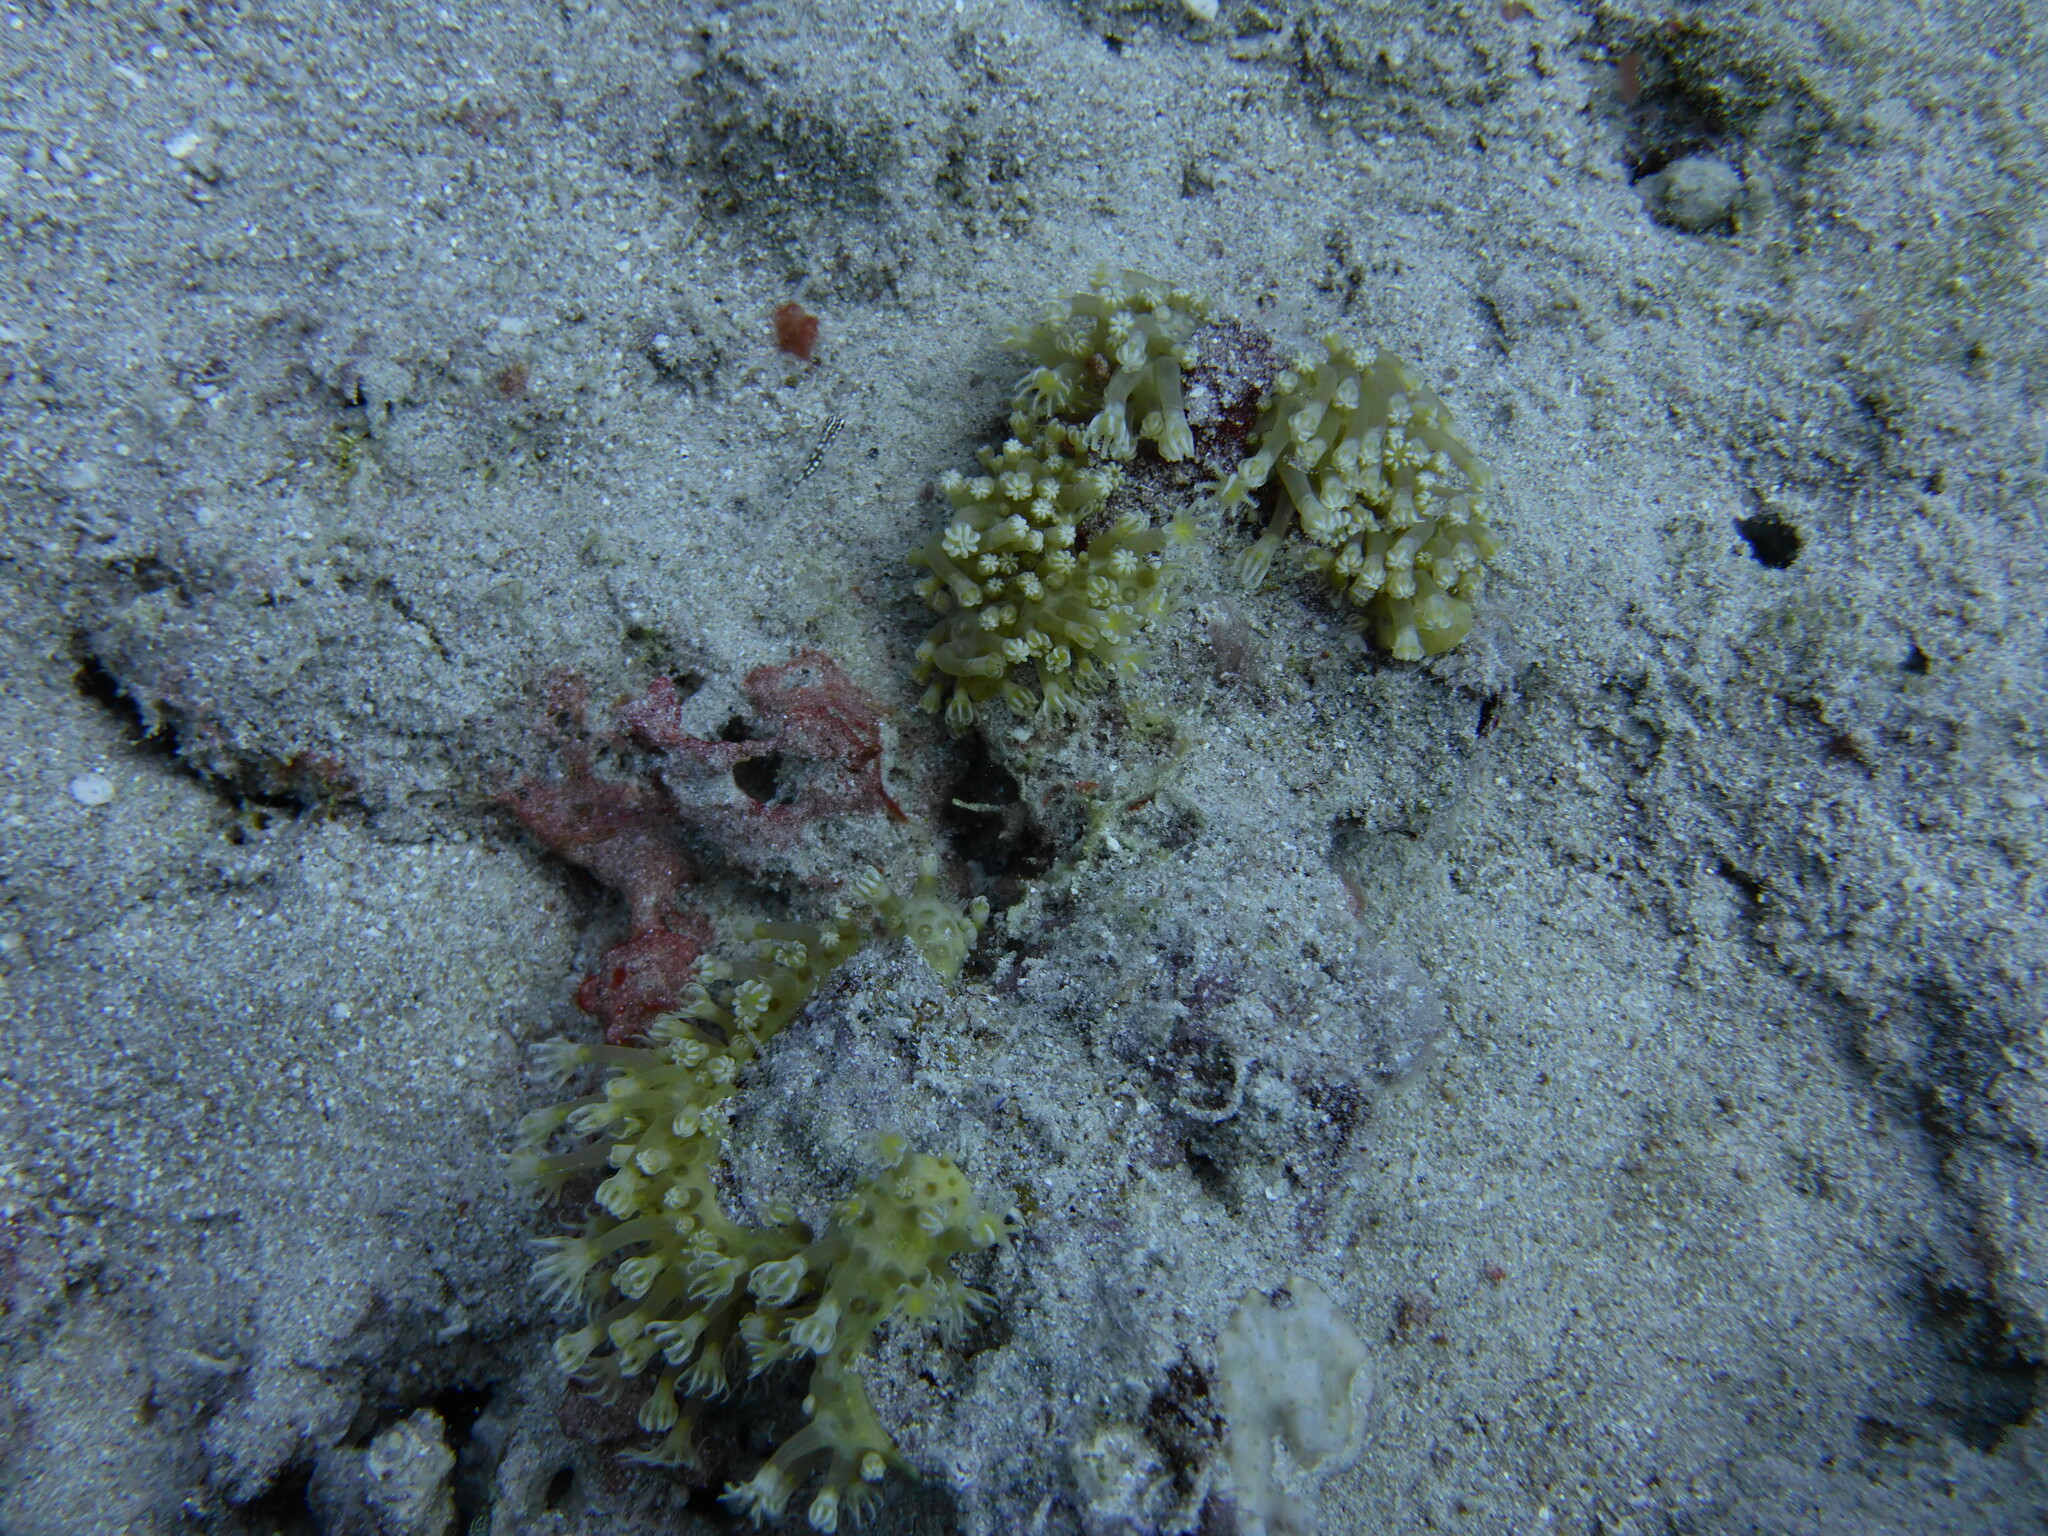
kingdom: Animalia
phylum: Cnidaria
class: Anthozoa
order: Malacalcyonacea
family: Lemnaliadae
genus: Rhytisma
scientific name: Rhytisma fulvum
